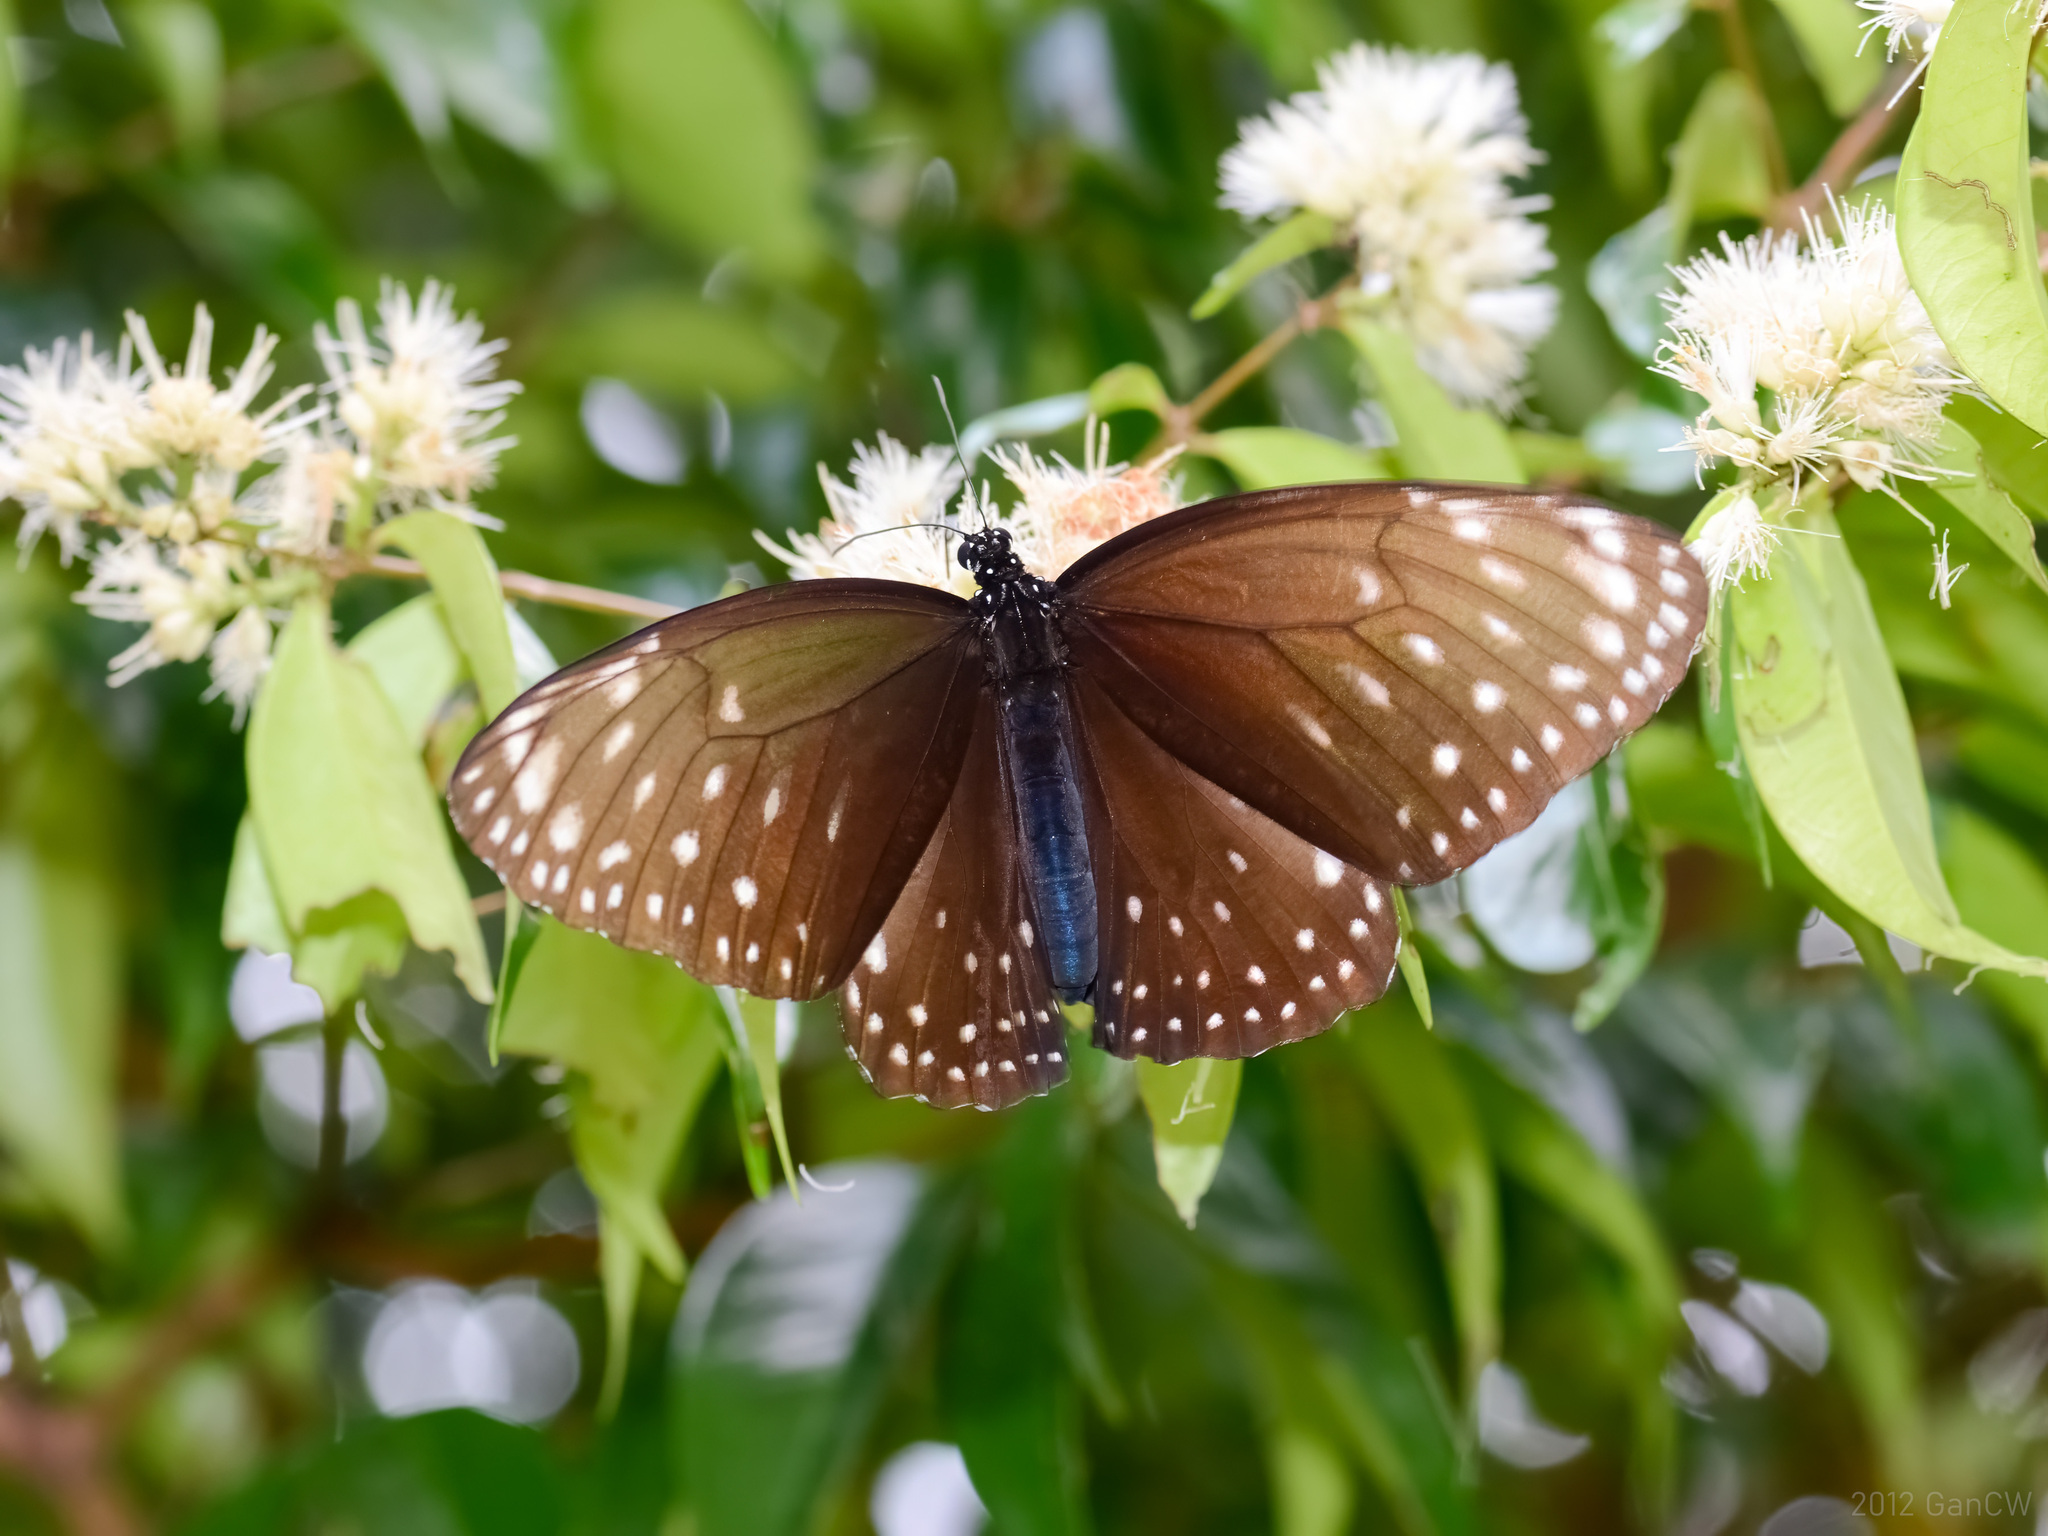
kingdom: Animalia
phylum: Arthropoda
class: Insecta
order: Lepidoptera
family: Nymphalidae
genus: Euploea
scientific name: Euploea phaenareta
